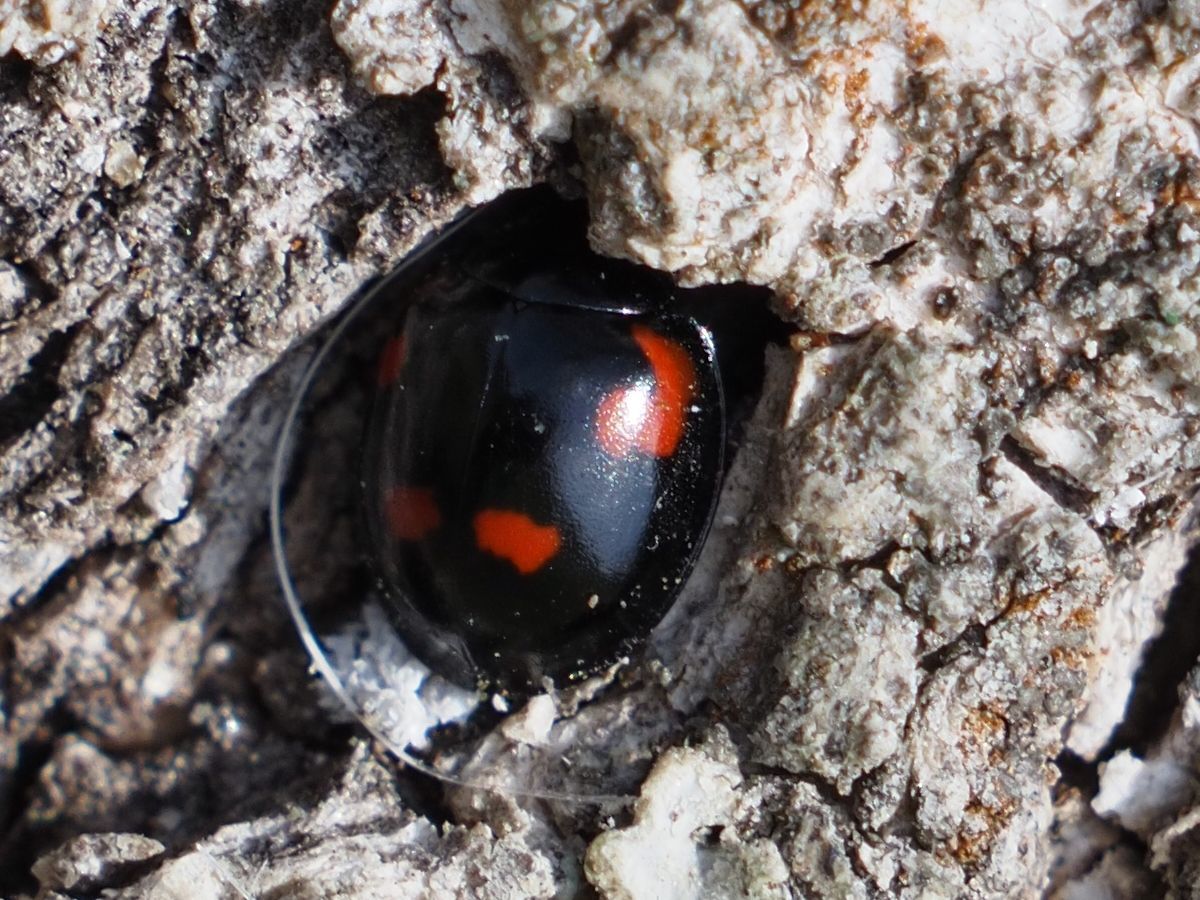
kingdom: Animalia
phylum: Arthropoda
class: Insecta
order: Coleoptera
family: Coccinellidae
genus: Brumus
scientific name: Brumus quadripustulatus
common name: Ladybird beetle
